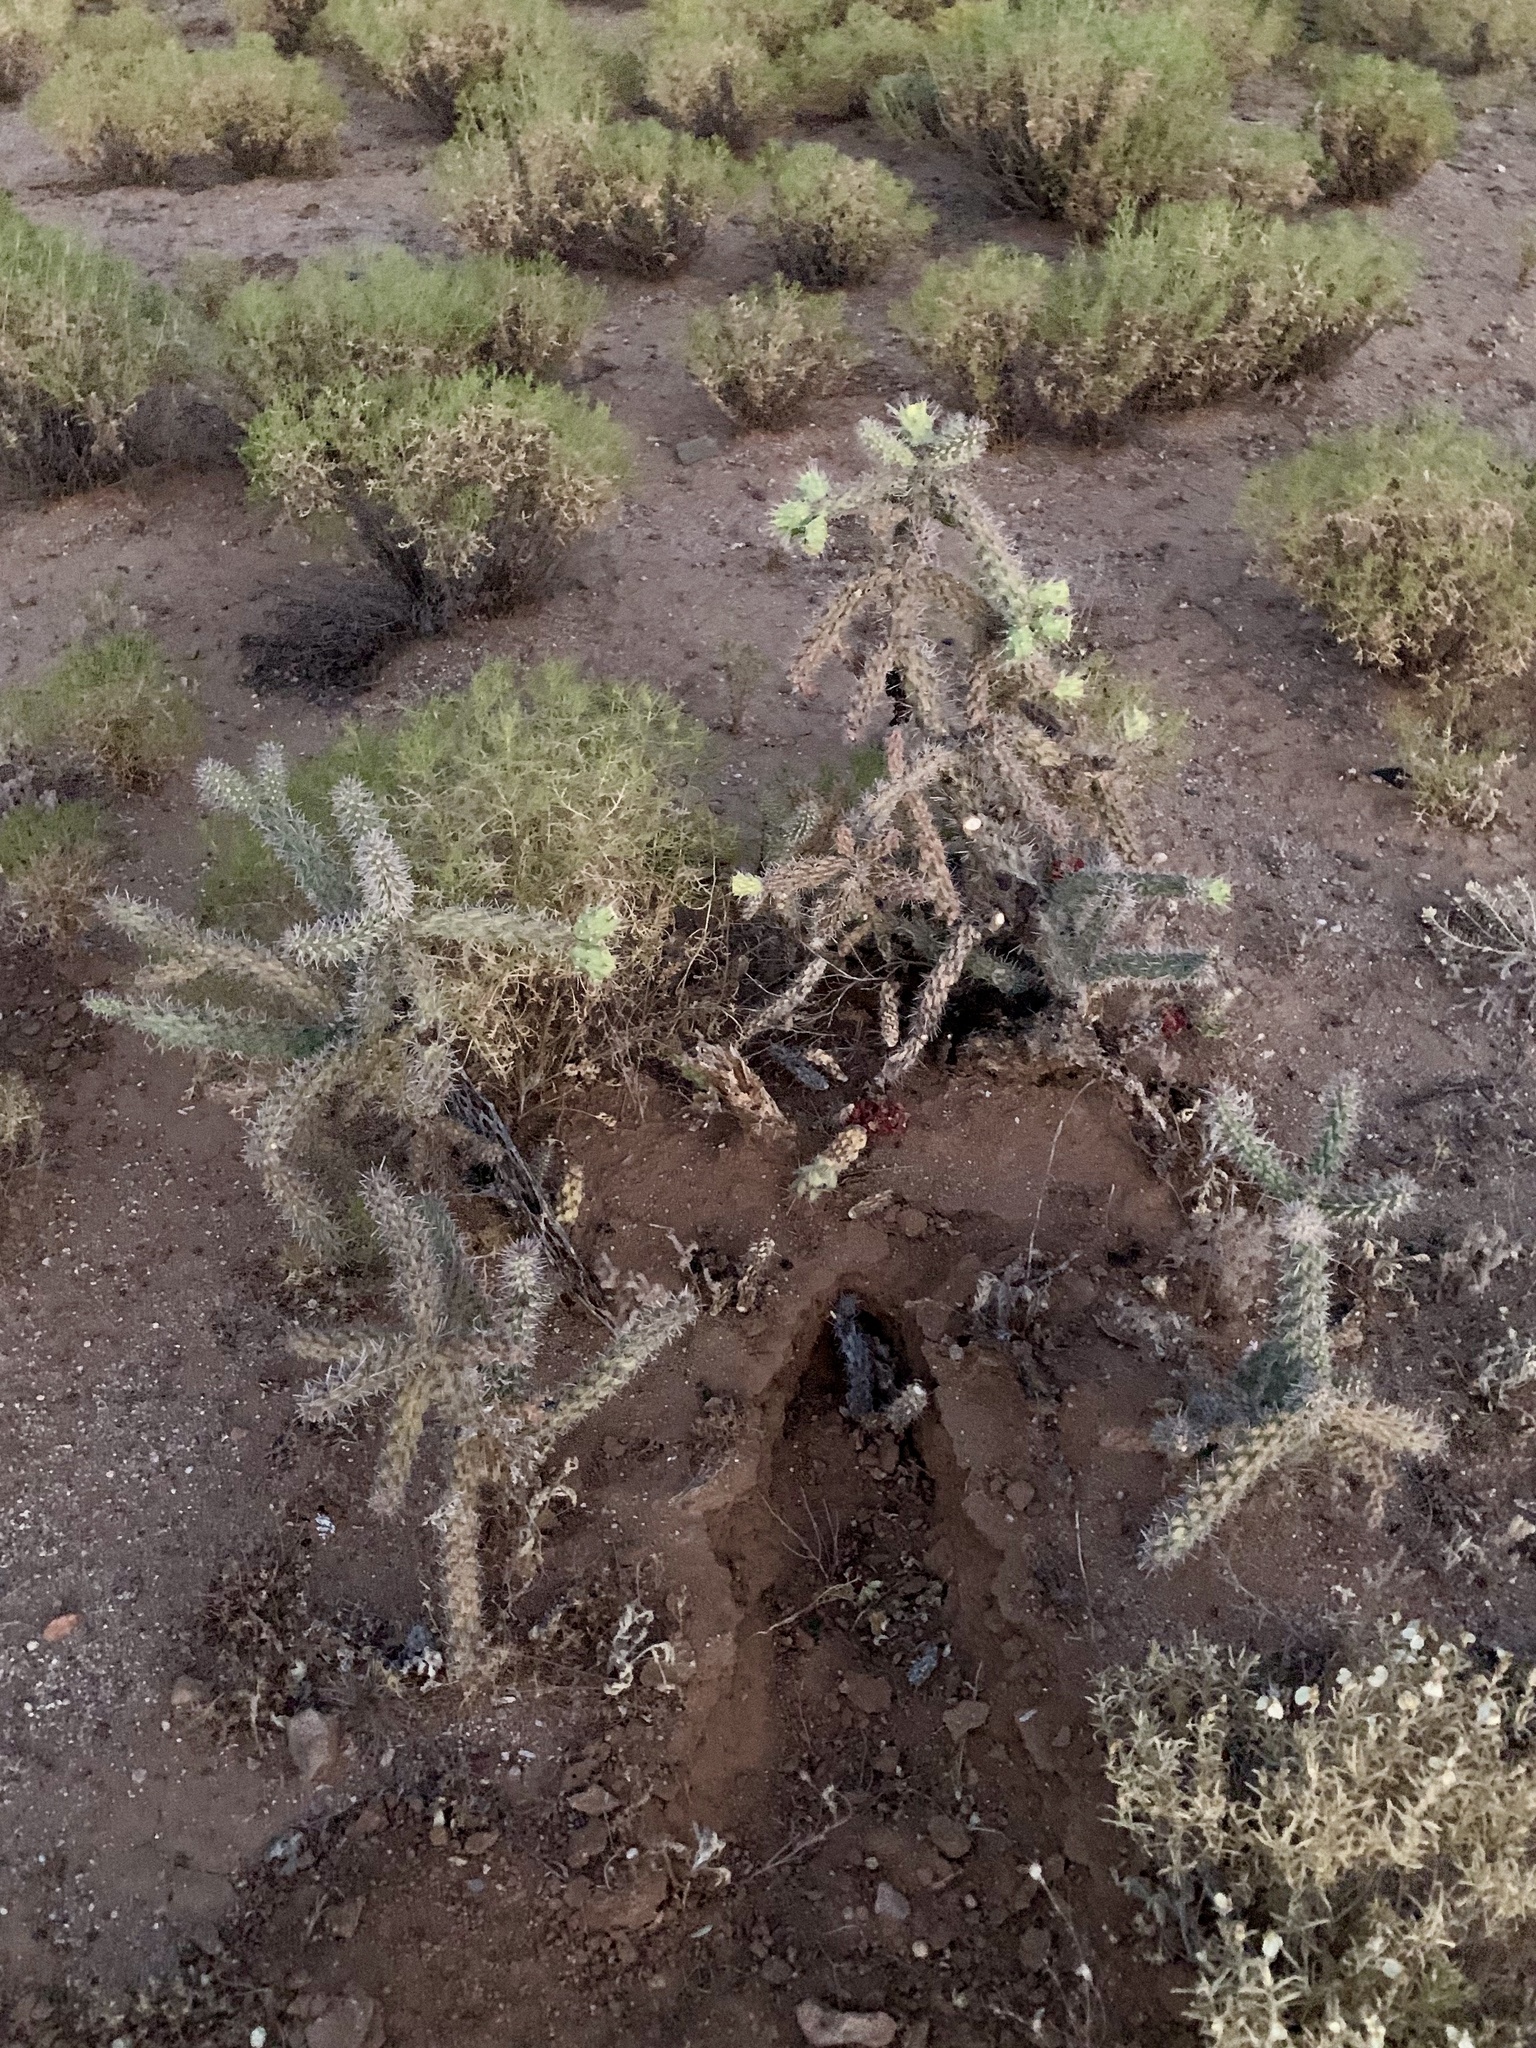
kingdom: Plantae
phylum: Tracheophyta
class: Magnoliopsida
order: Caryophyllales
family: Cactaceae
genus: Cylindropuntia
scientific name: Cylindropuntia imbricata
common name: Candelabrum cactus
